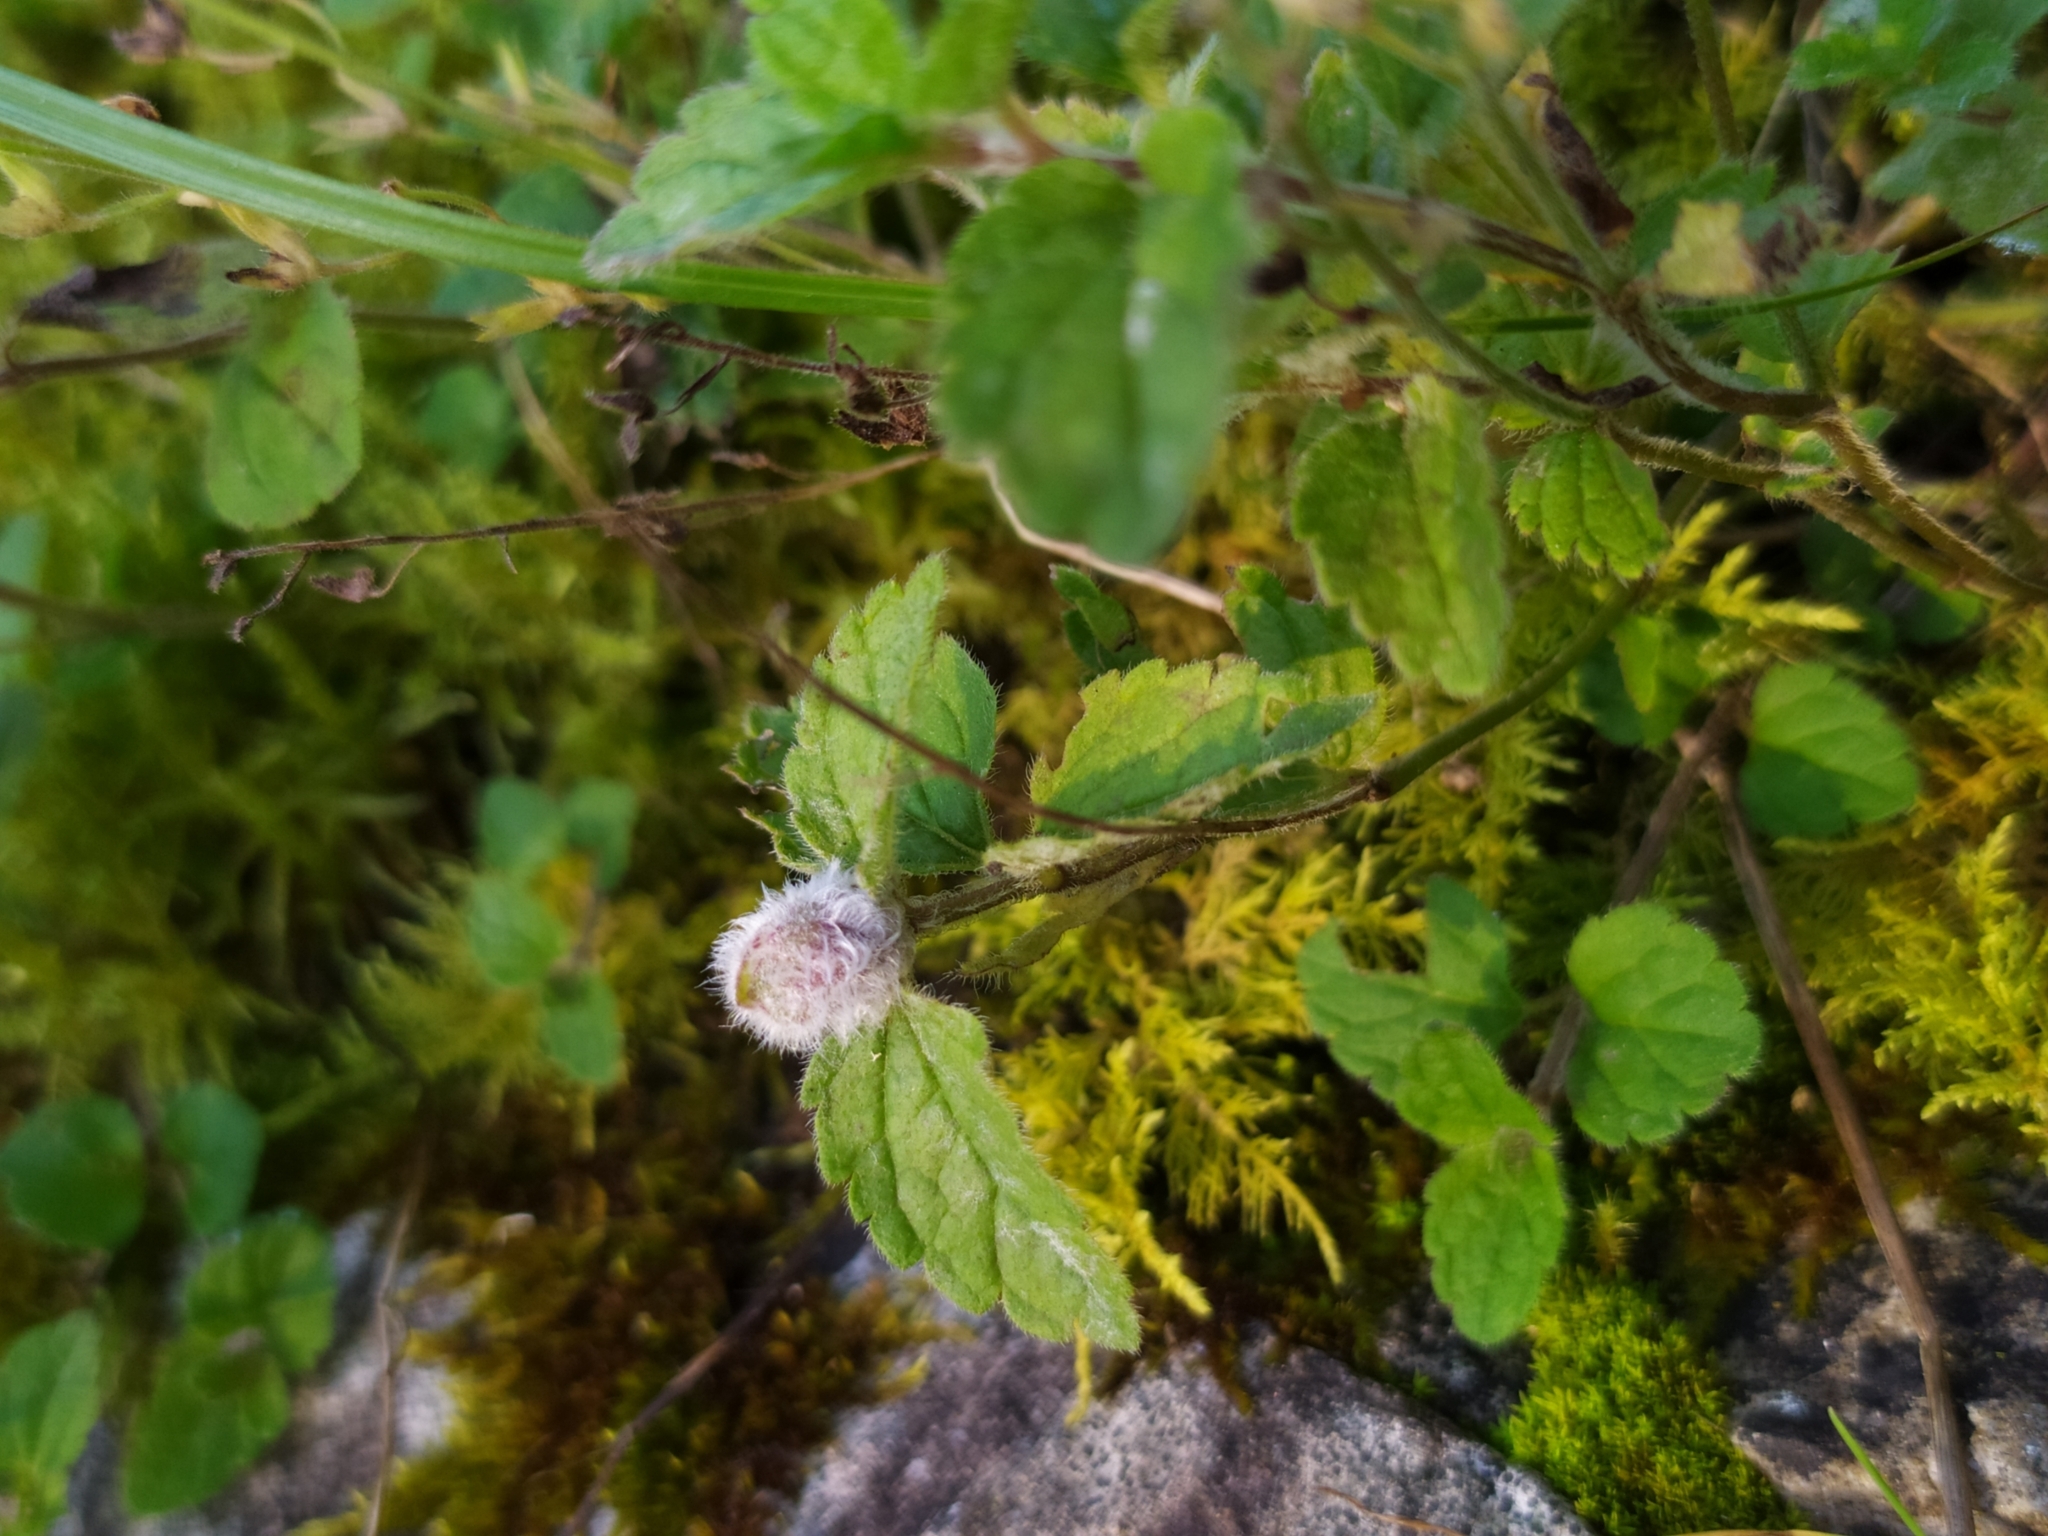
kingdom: Animalia
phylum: Arthropoda
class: Insecta
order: Diptera
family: Cecidomyiidae
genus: Jaapiella
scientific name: Jaapiella veronicae
